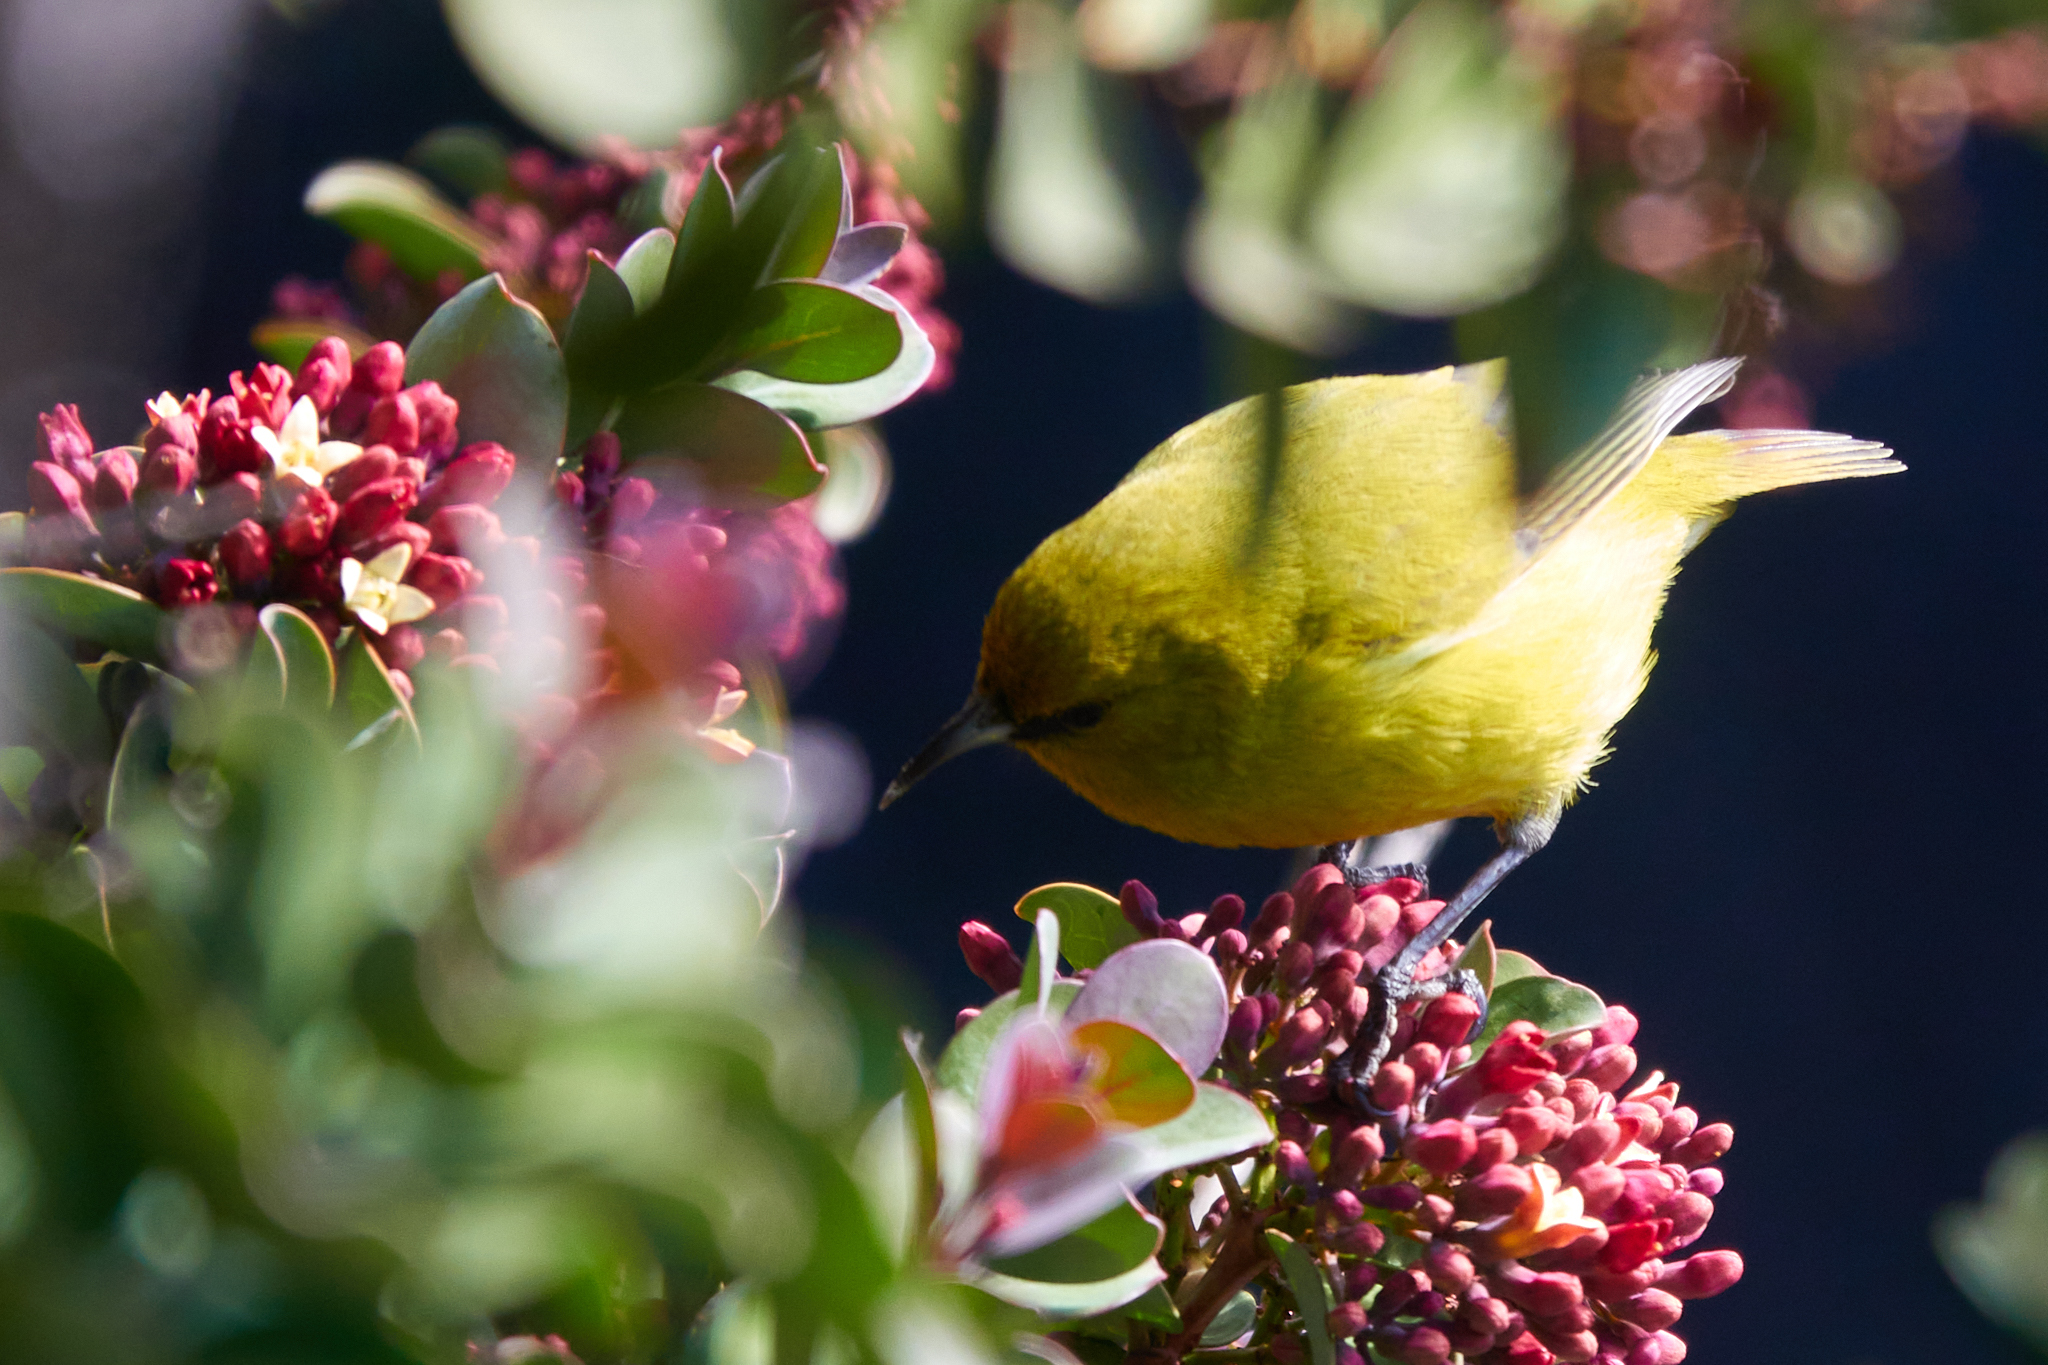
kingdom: Animalia
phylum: Chordata
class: Aves
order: Passeriformes
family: Fringillidae
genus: Chlorodrepanis
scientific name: Chlorodrepanis virens
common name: Hawaii amakihi
